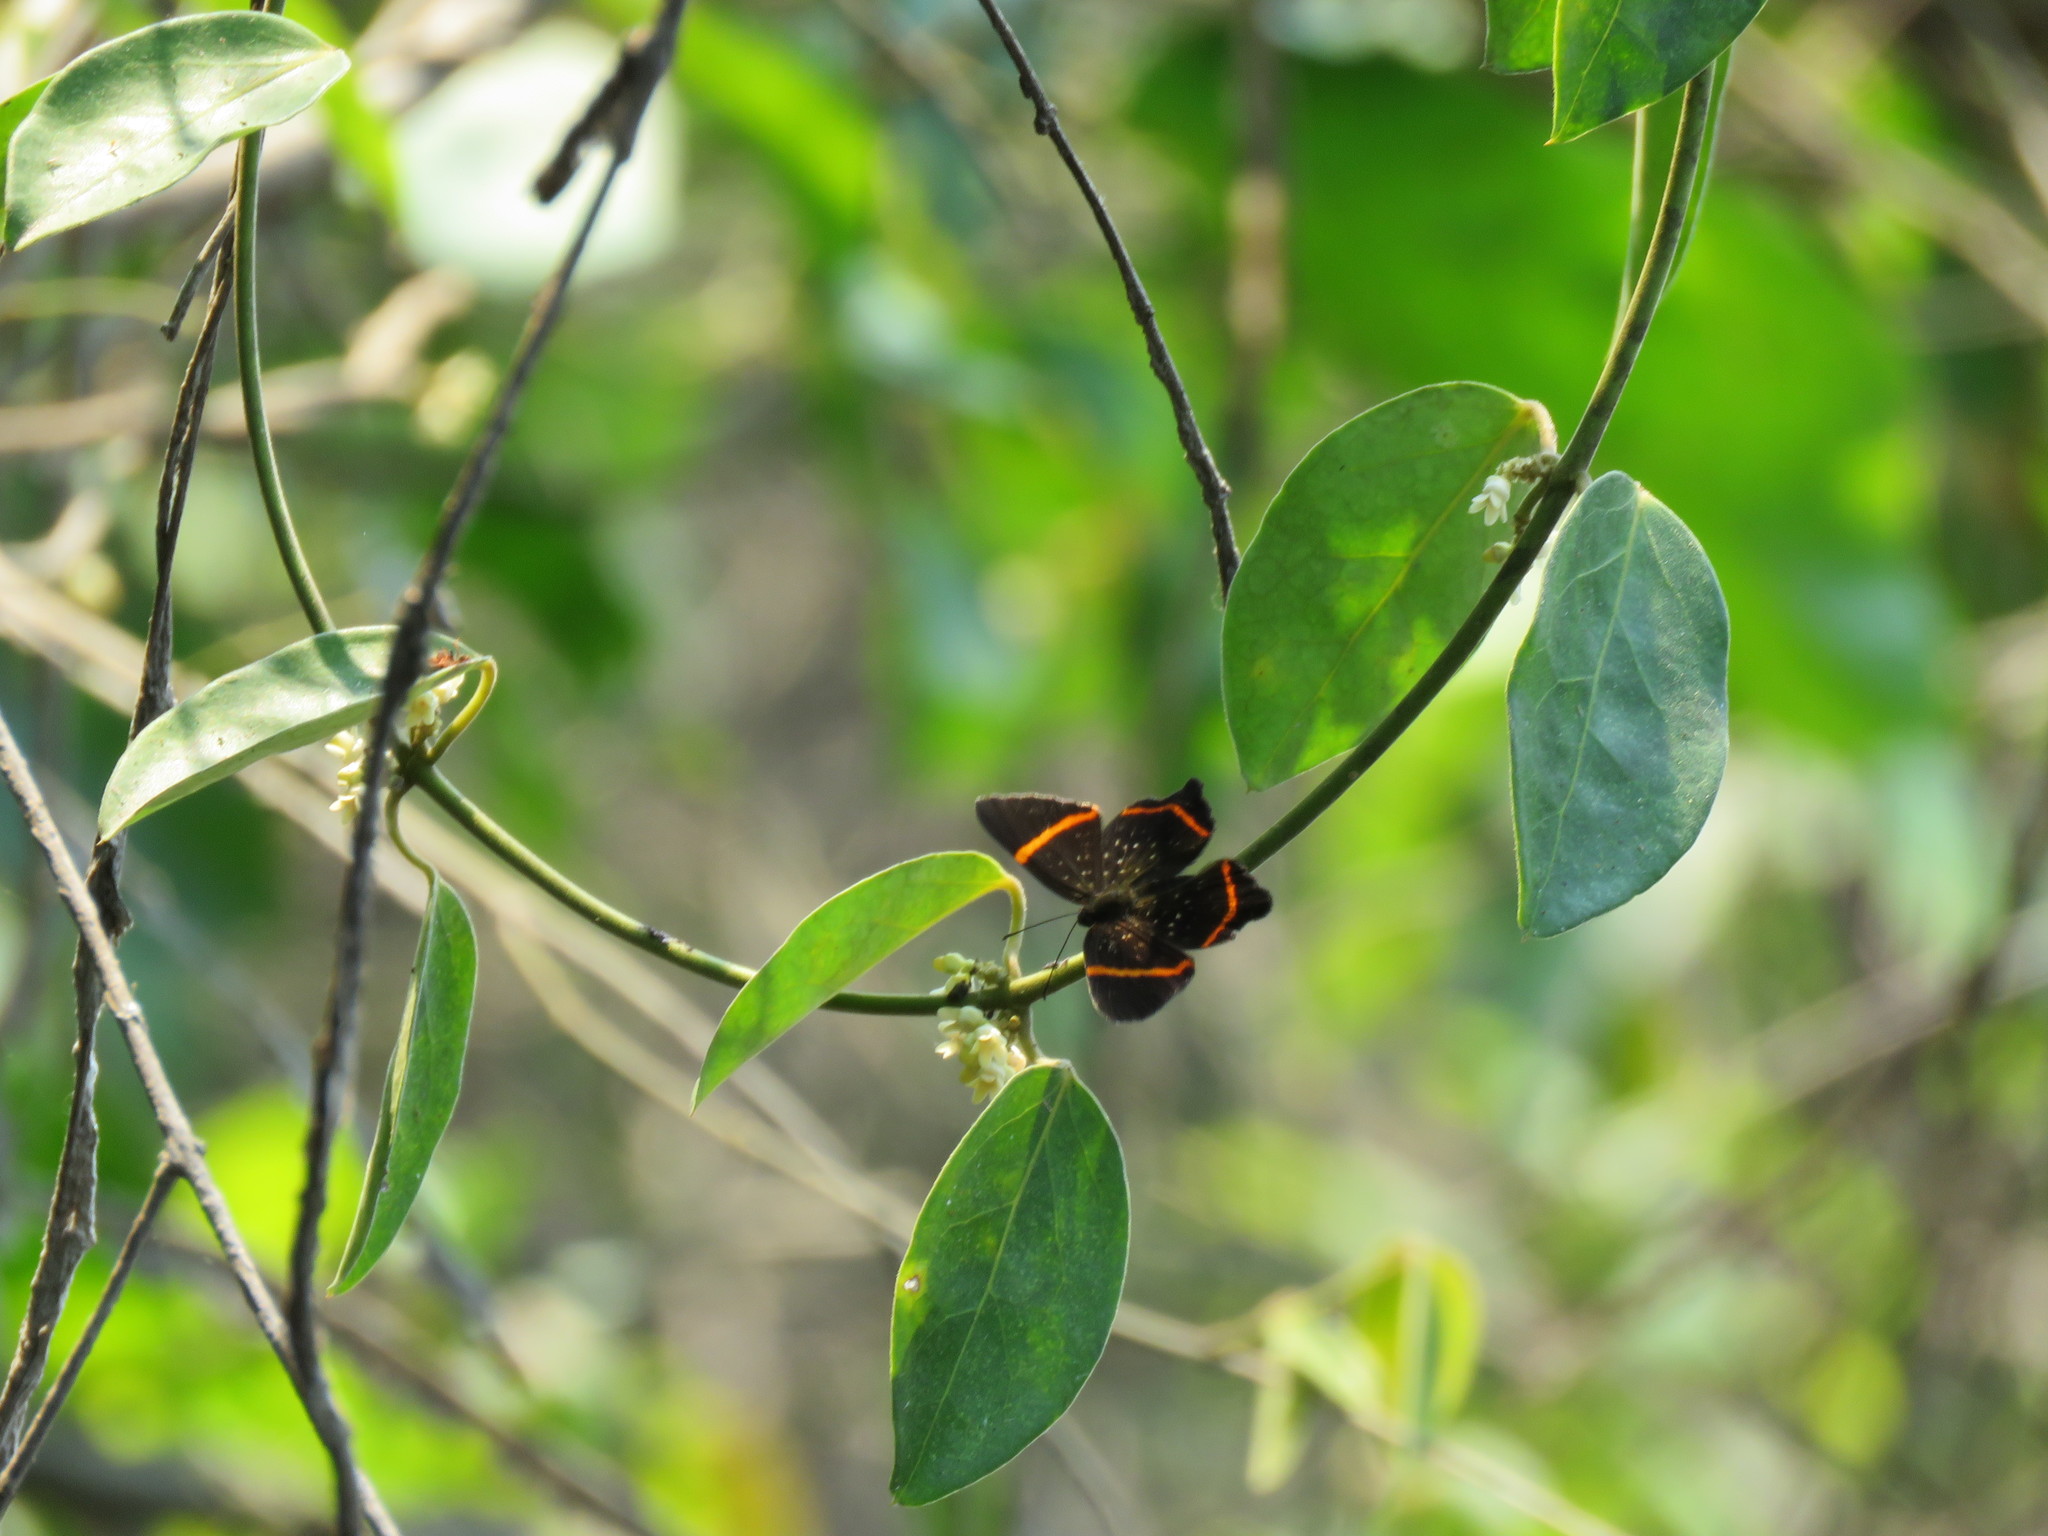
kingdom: Animalia
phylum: Arthropoda
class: Insecta
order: Lepidoptera
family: Riodinidae
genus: Riodina
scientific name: Riodina lysippus
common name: Lysippus metalmark
